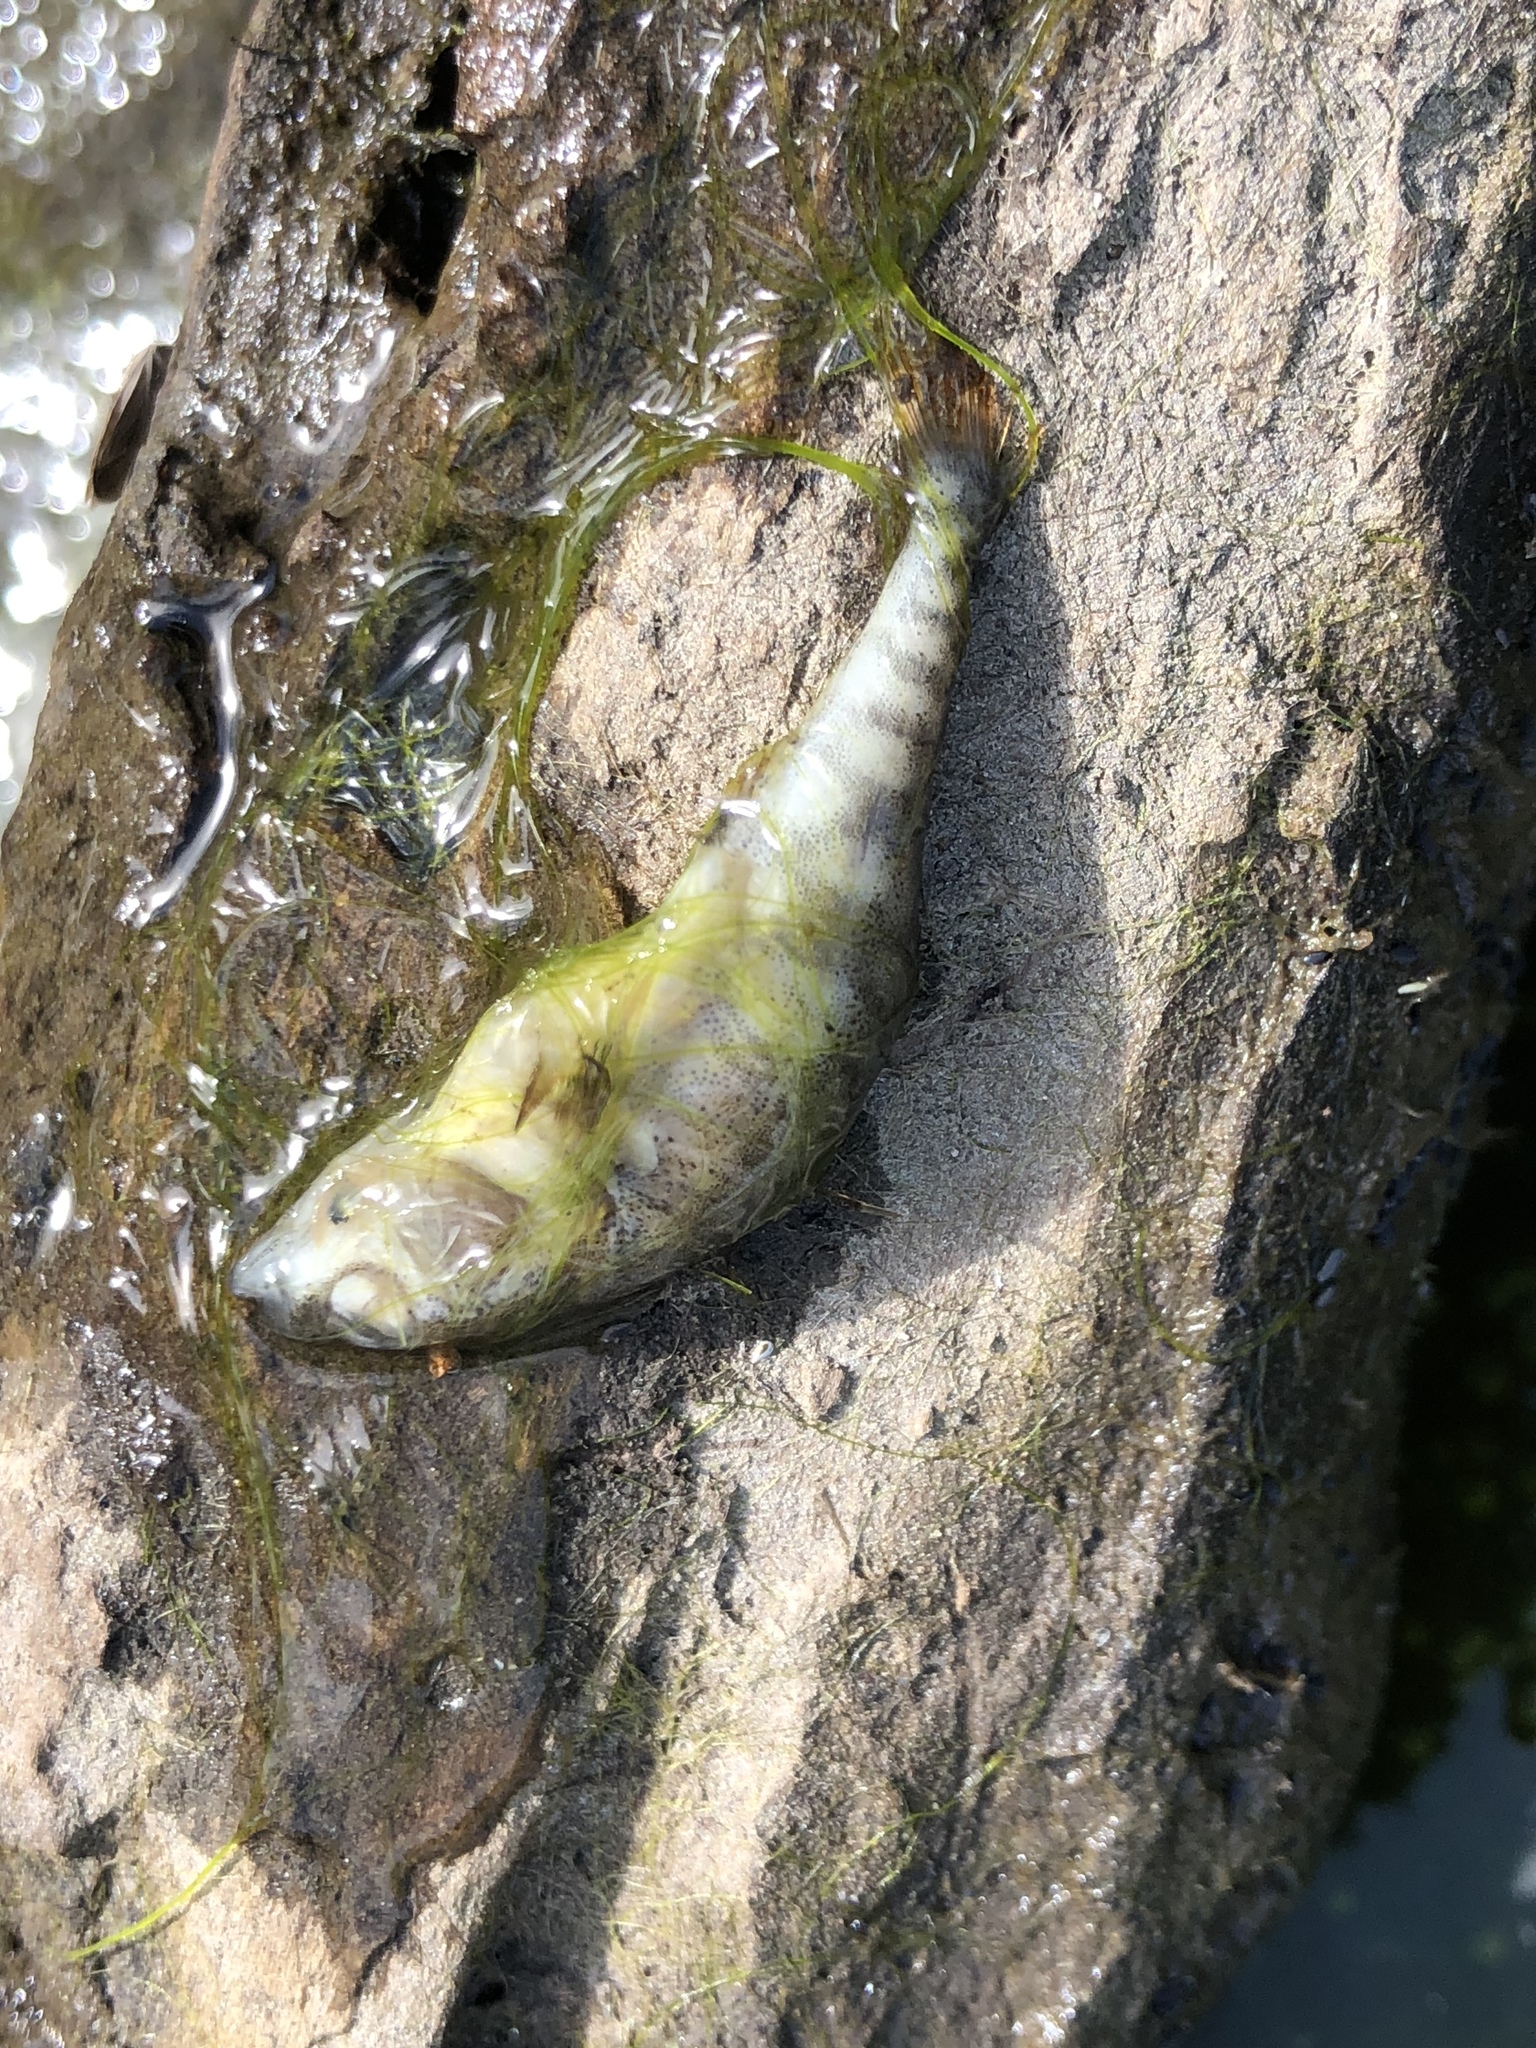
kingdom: Animalia
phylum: Chordata
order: Gasterosteiformes
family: Gasterosteidae
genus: Gasterosteus
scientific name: Gasterosteus aculeatus
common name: Three-spined stickleback
